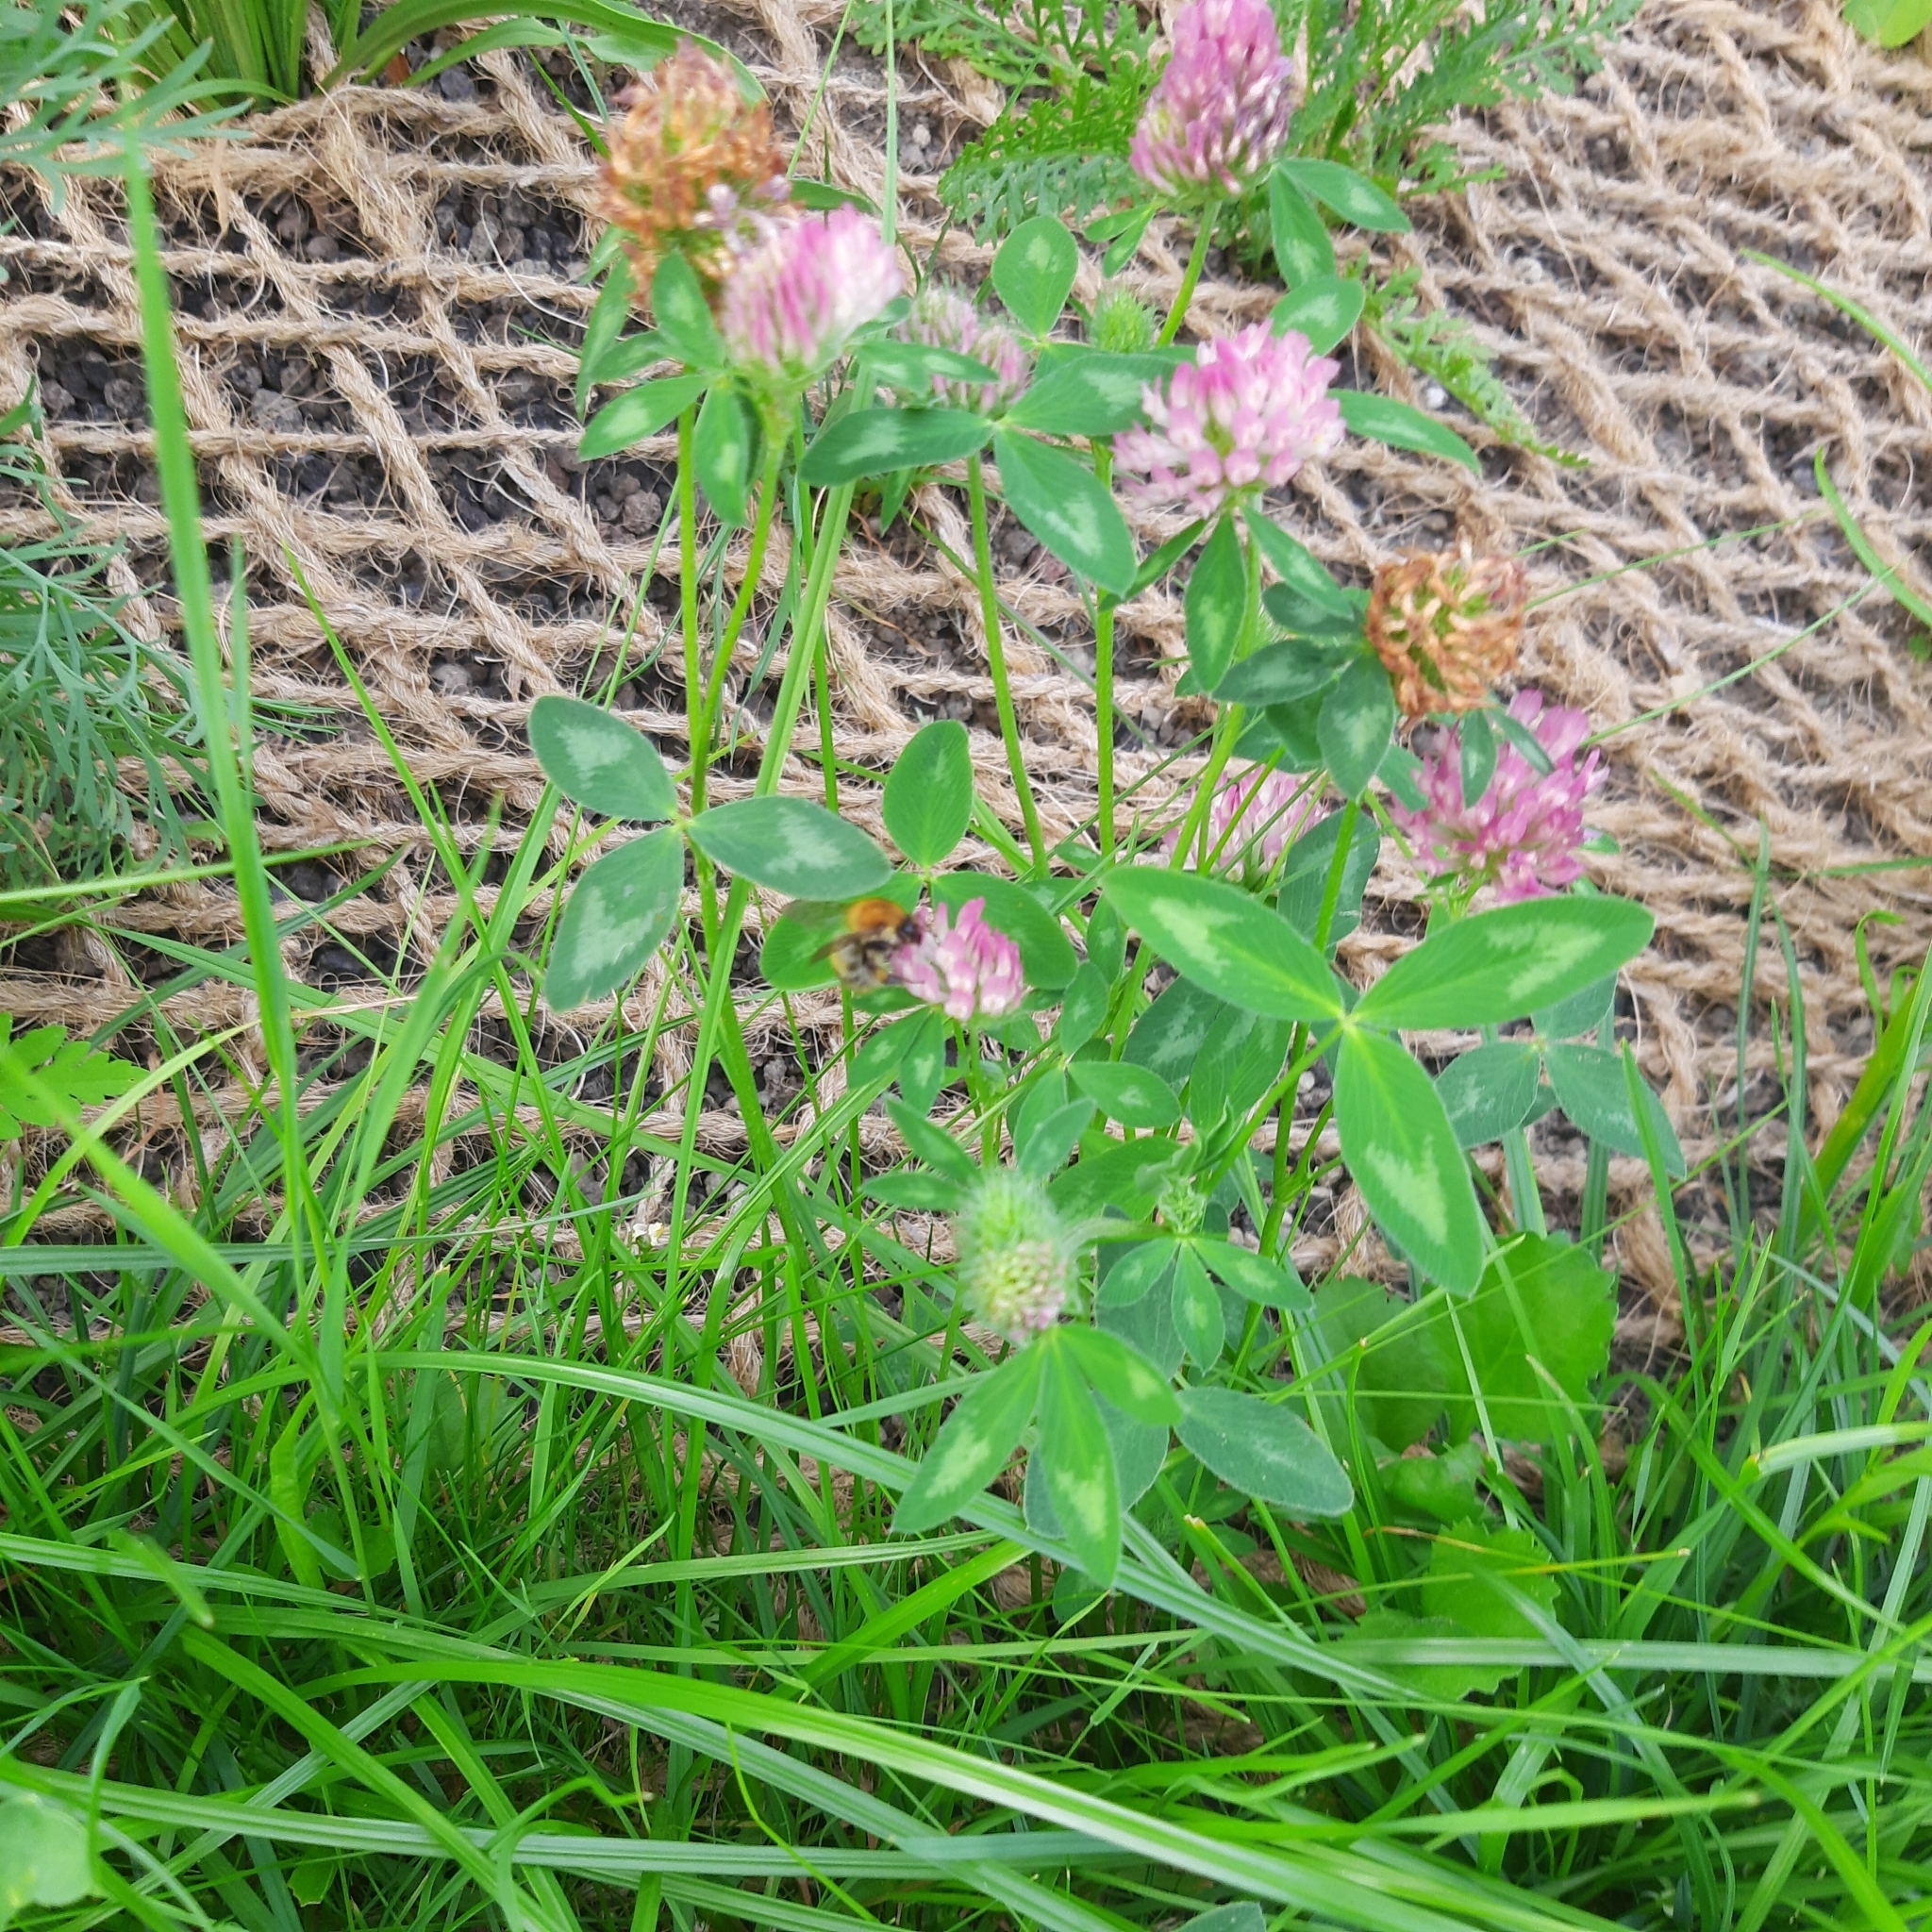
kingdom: Plantae
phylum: Tracheophyta
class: Magnoliopsida
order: Fabales
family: Fabaceae
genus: Trifolium
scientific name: Trifolium pratense
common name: Red clover
